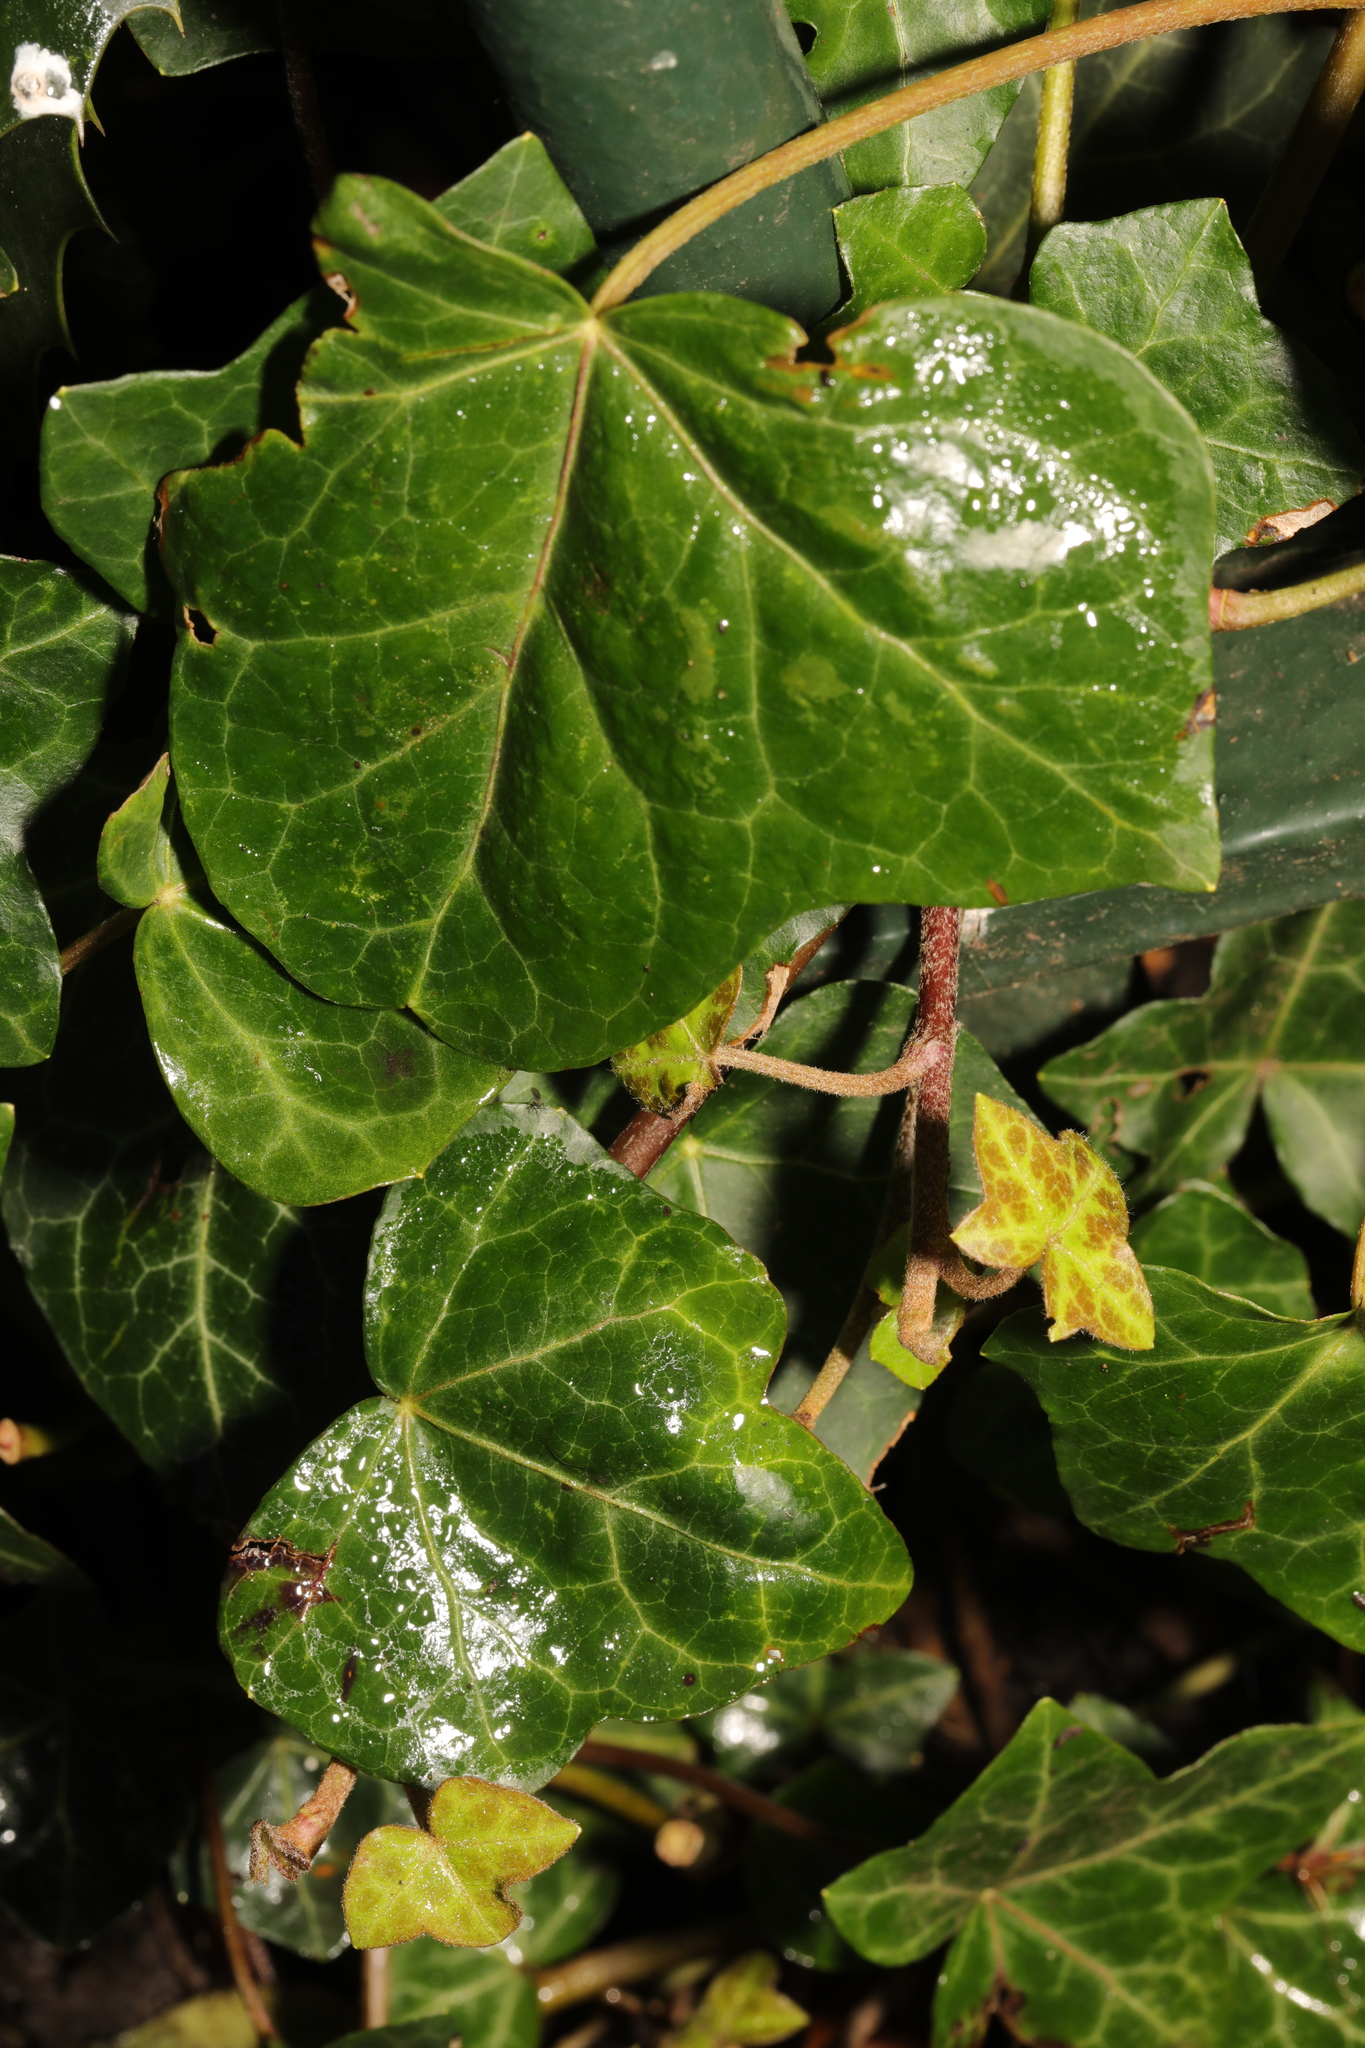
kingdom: Plantae
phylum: Tracheophyta
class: Magnoliopsida
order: Apiales
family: Araliaceae
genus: Hedera
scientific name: Hedera helix
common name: Ivy
